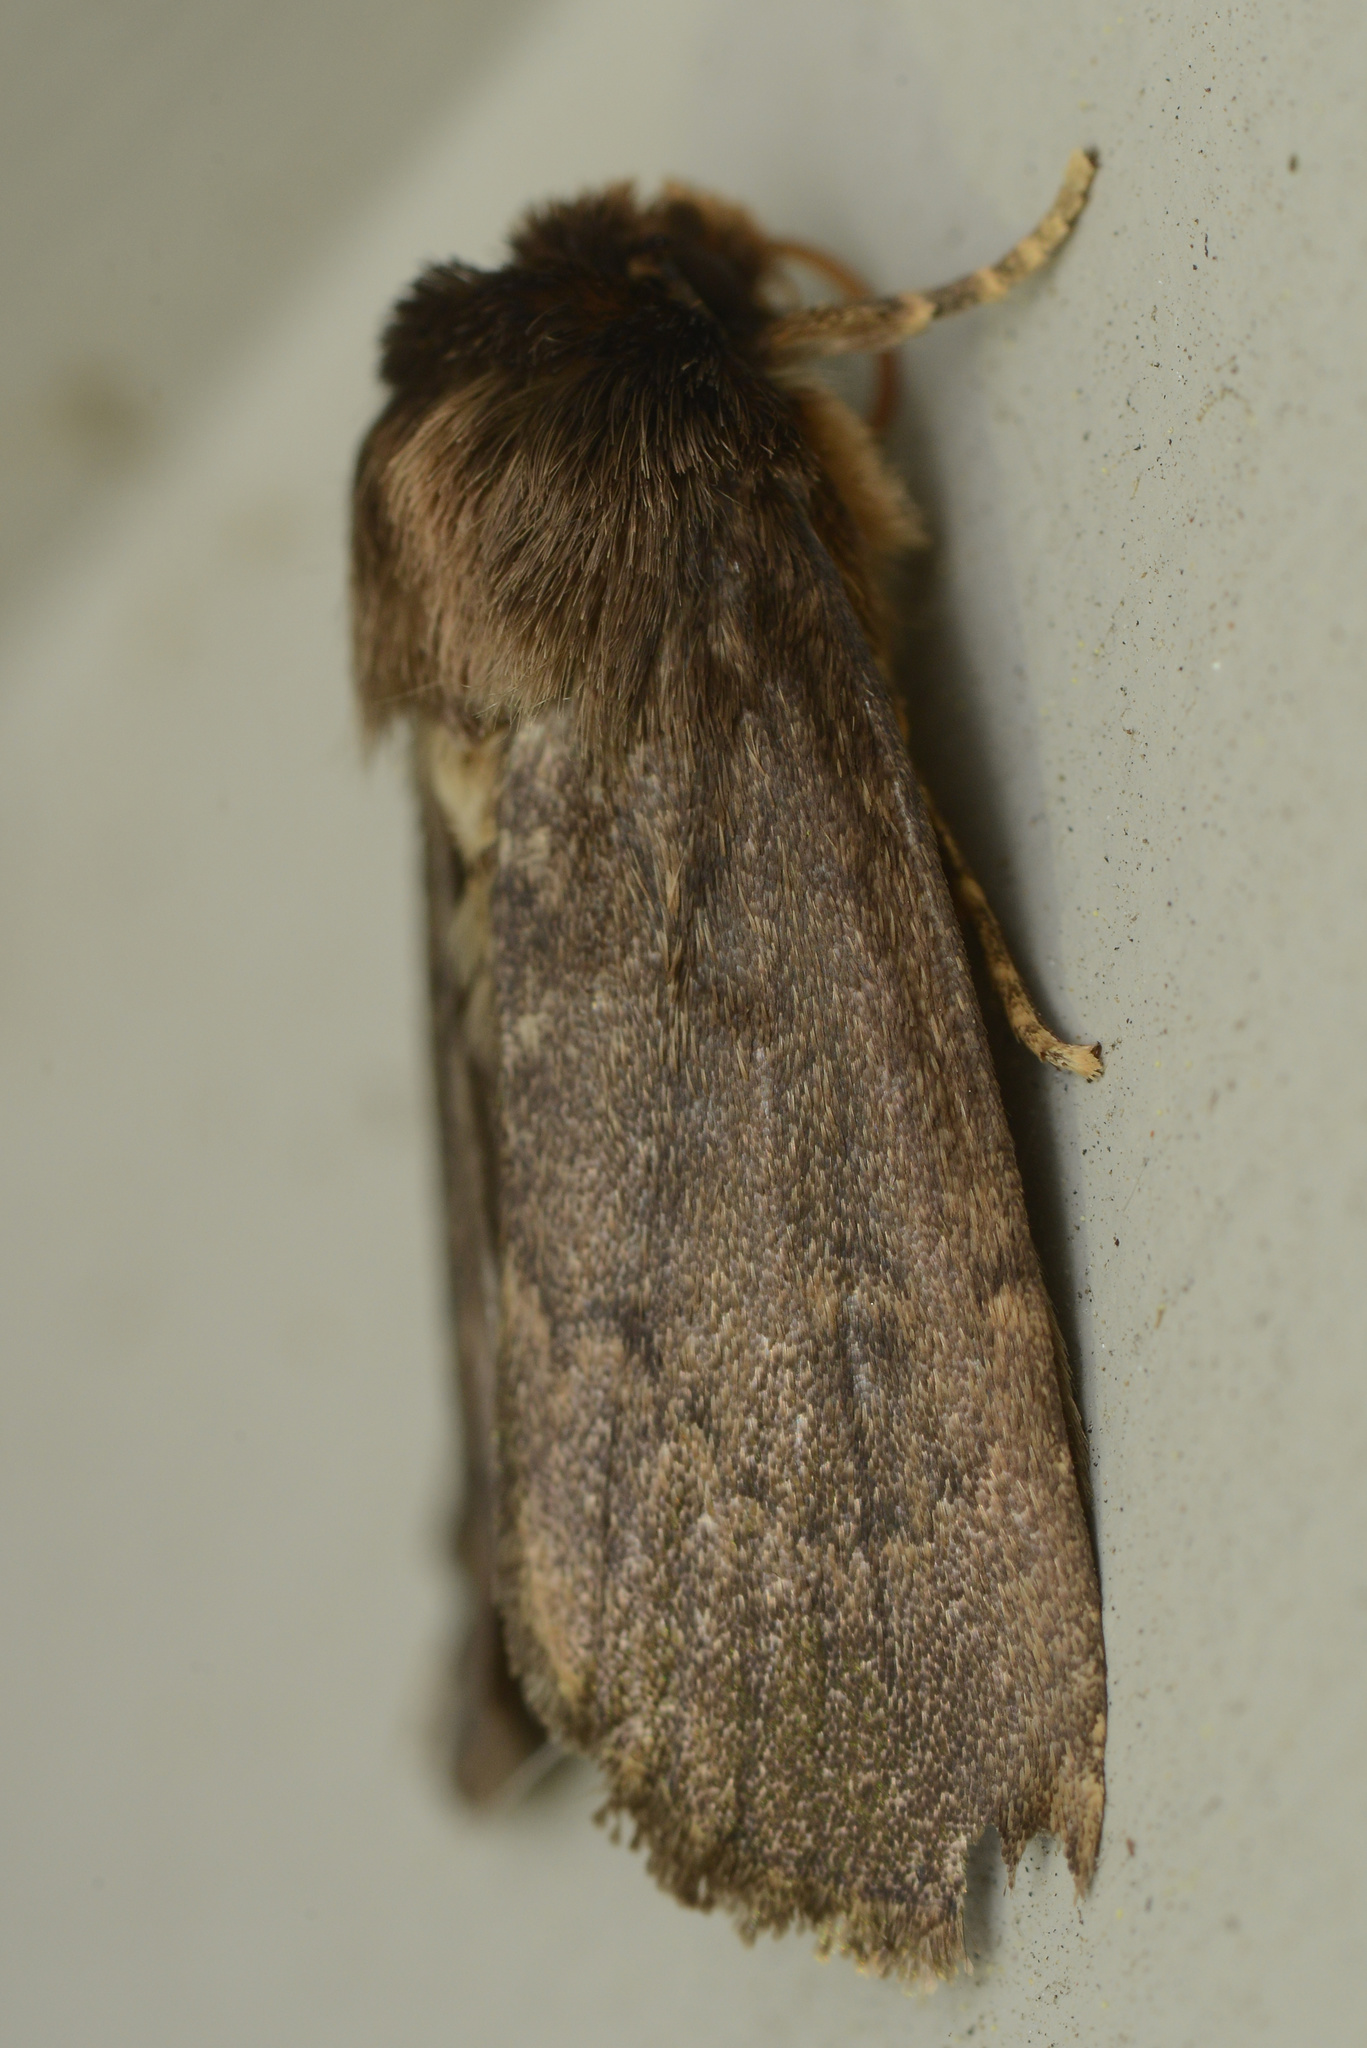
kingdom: Animalia
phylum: Arthropoda
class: Insecta
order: Lepidoptera
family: Noctuidae
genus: Bityla
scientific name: Bityla defigurata
